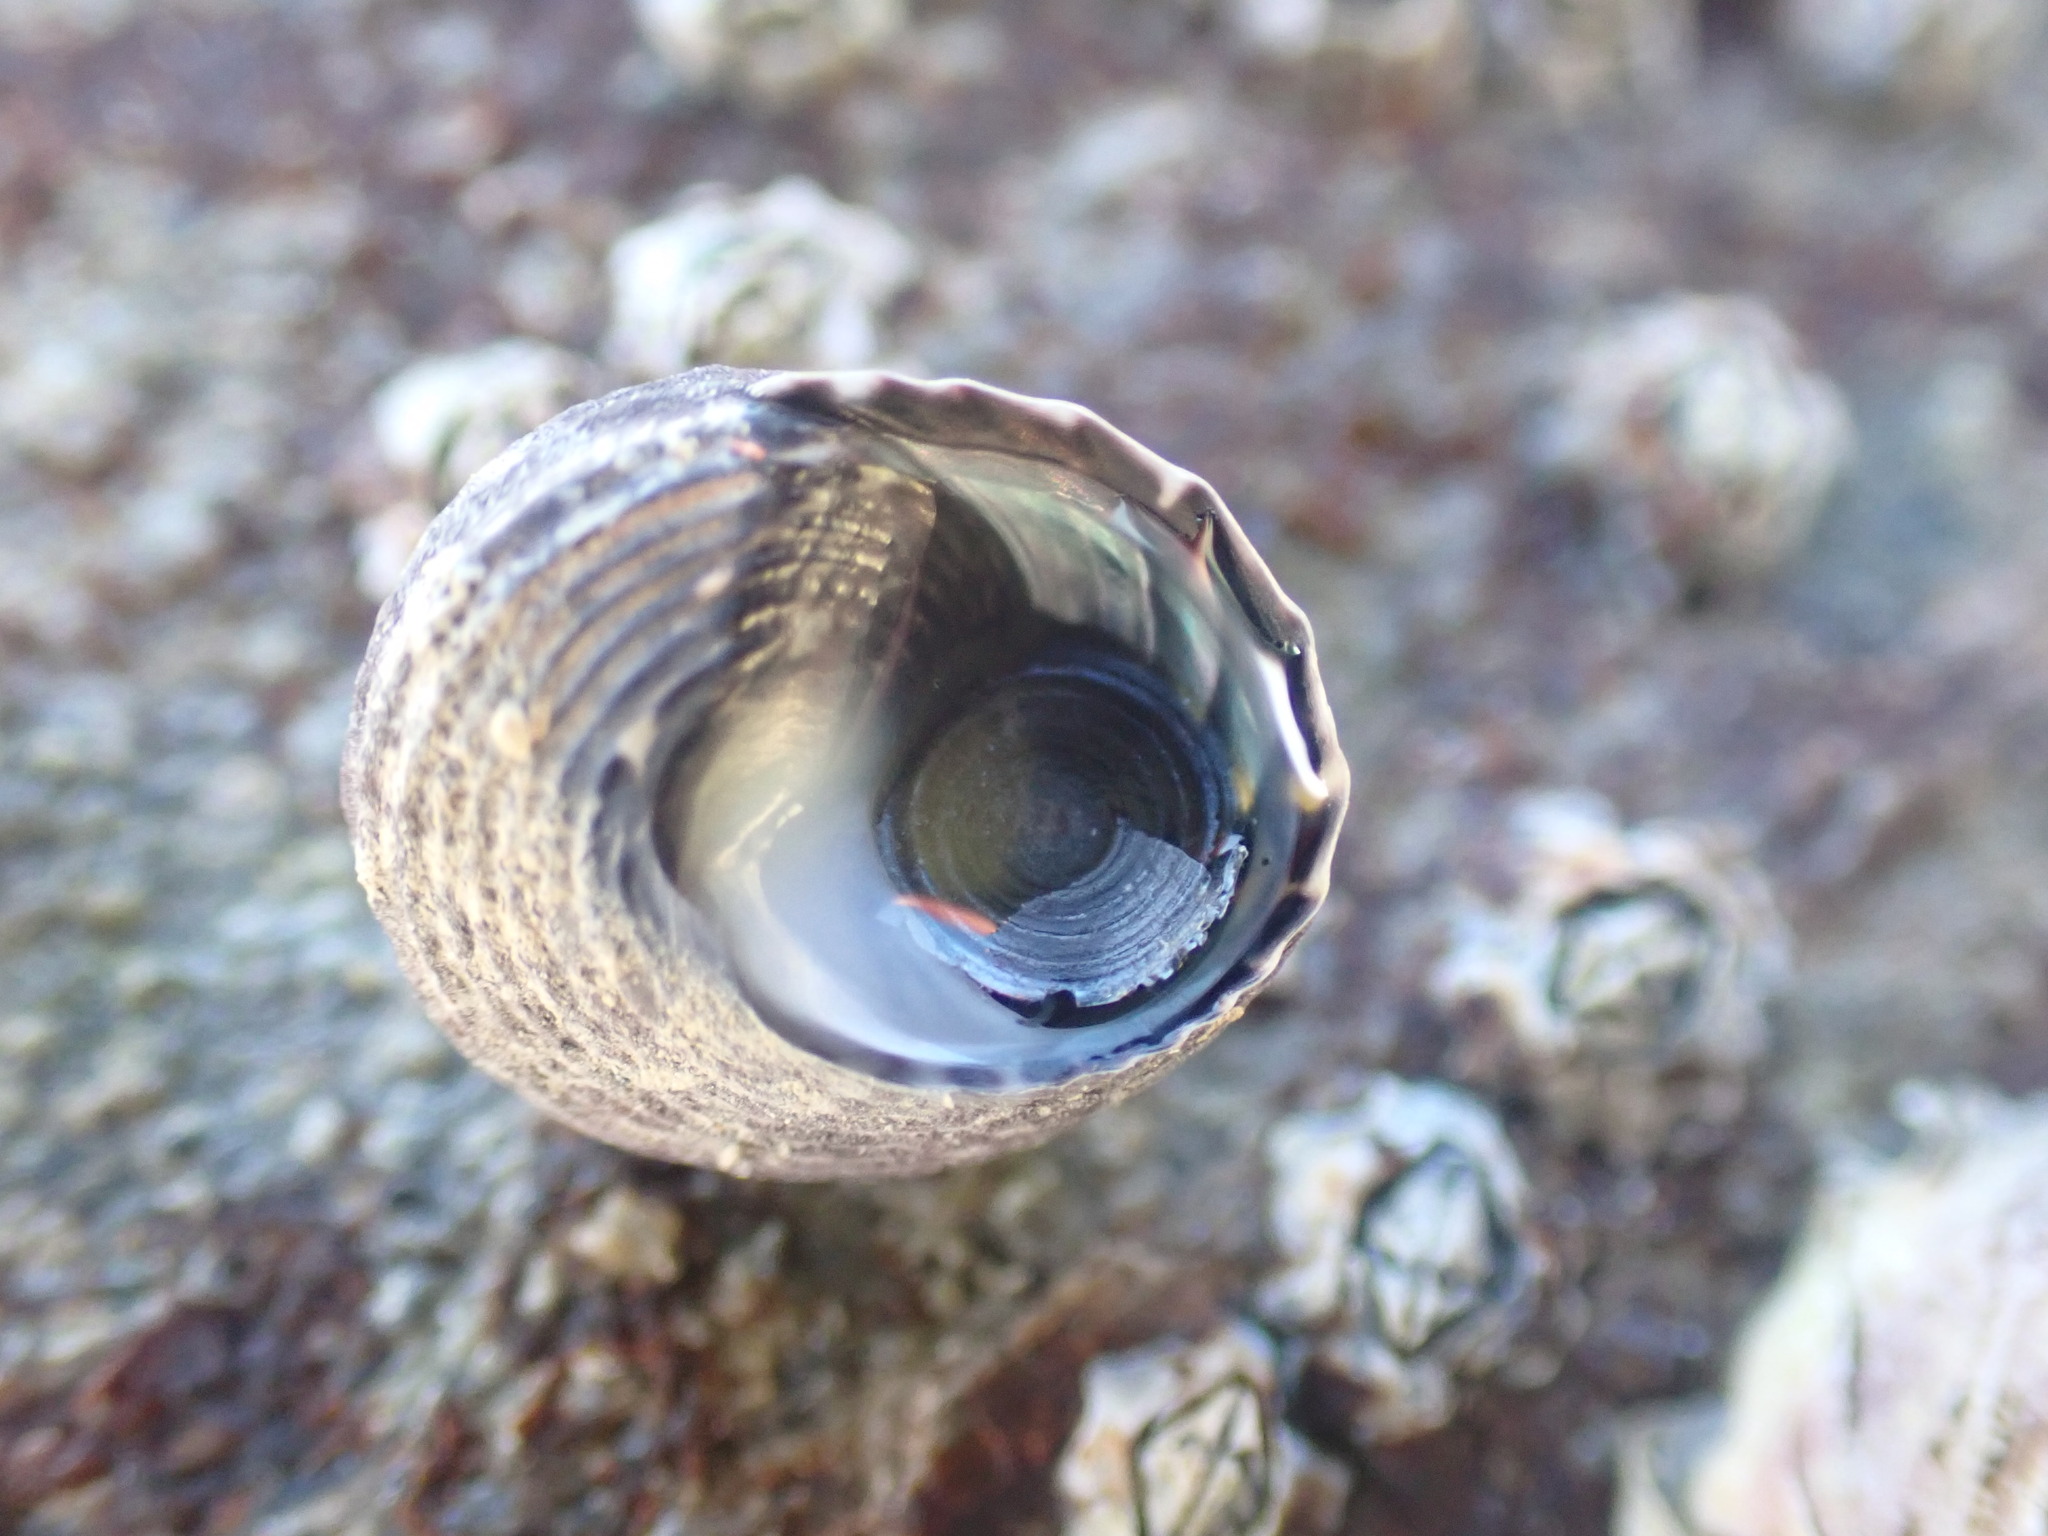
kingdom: Animalia
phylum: Mollusca
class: Gastropoda
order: Trochida
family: Trochidae
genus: Diloma
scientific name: Diloma subrostratum
